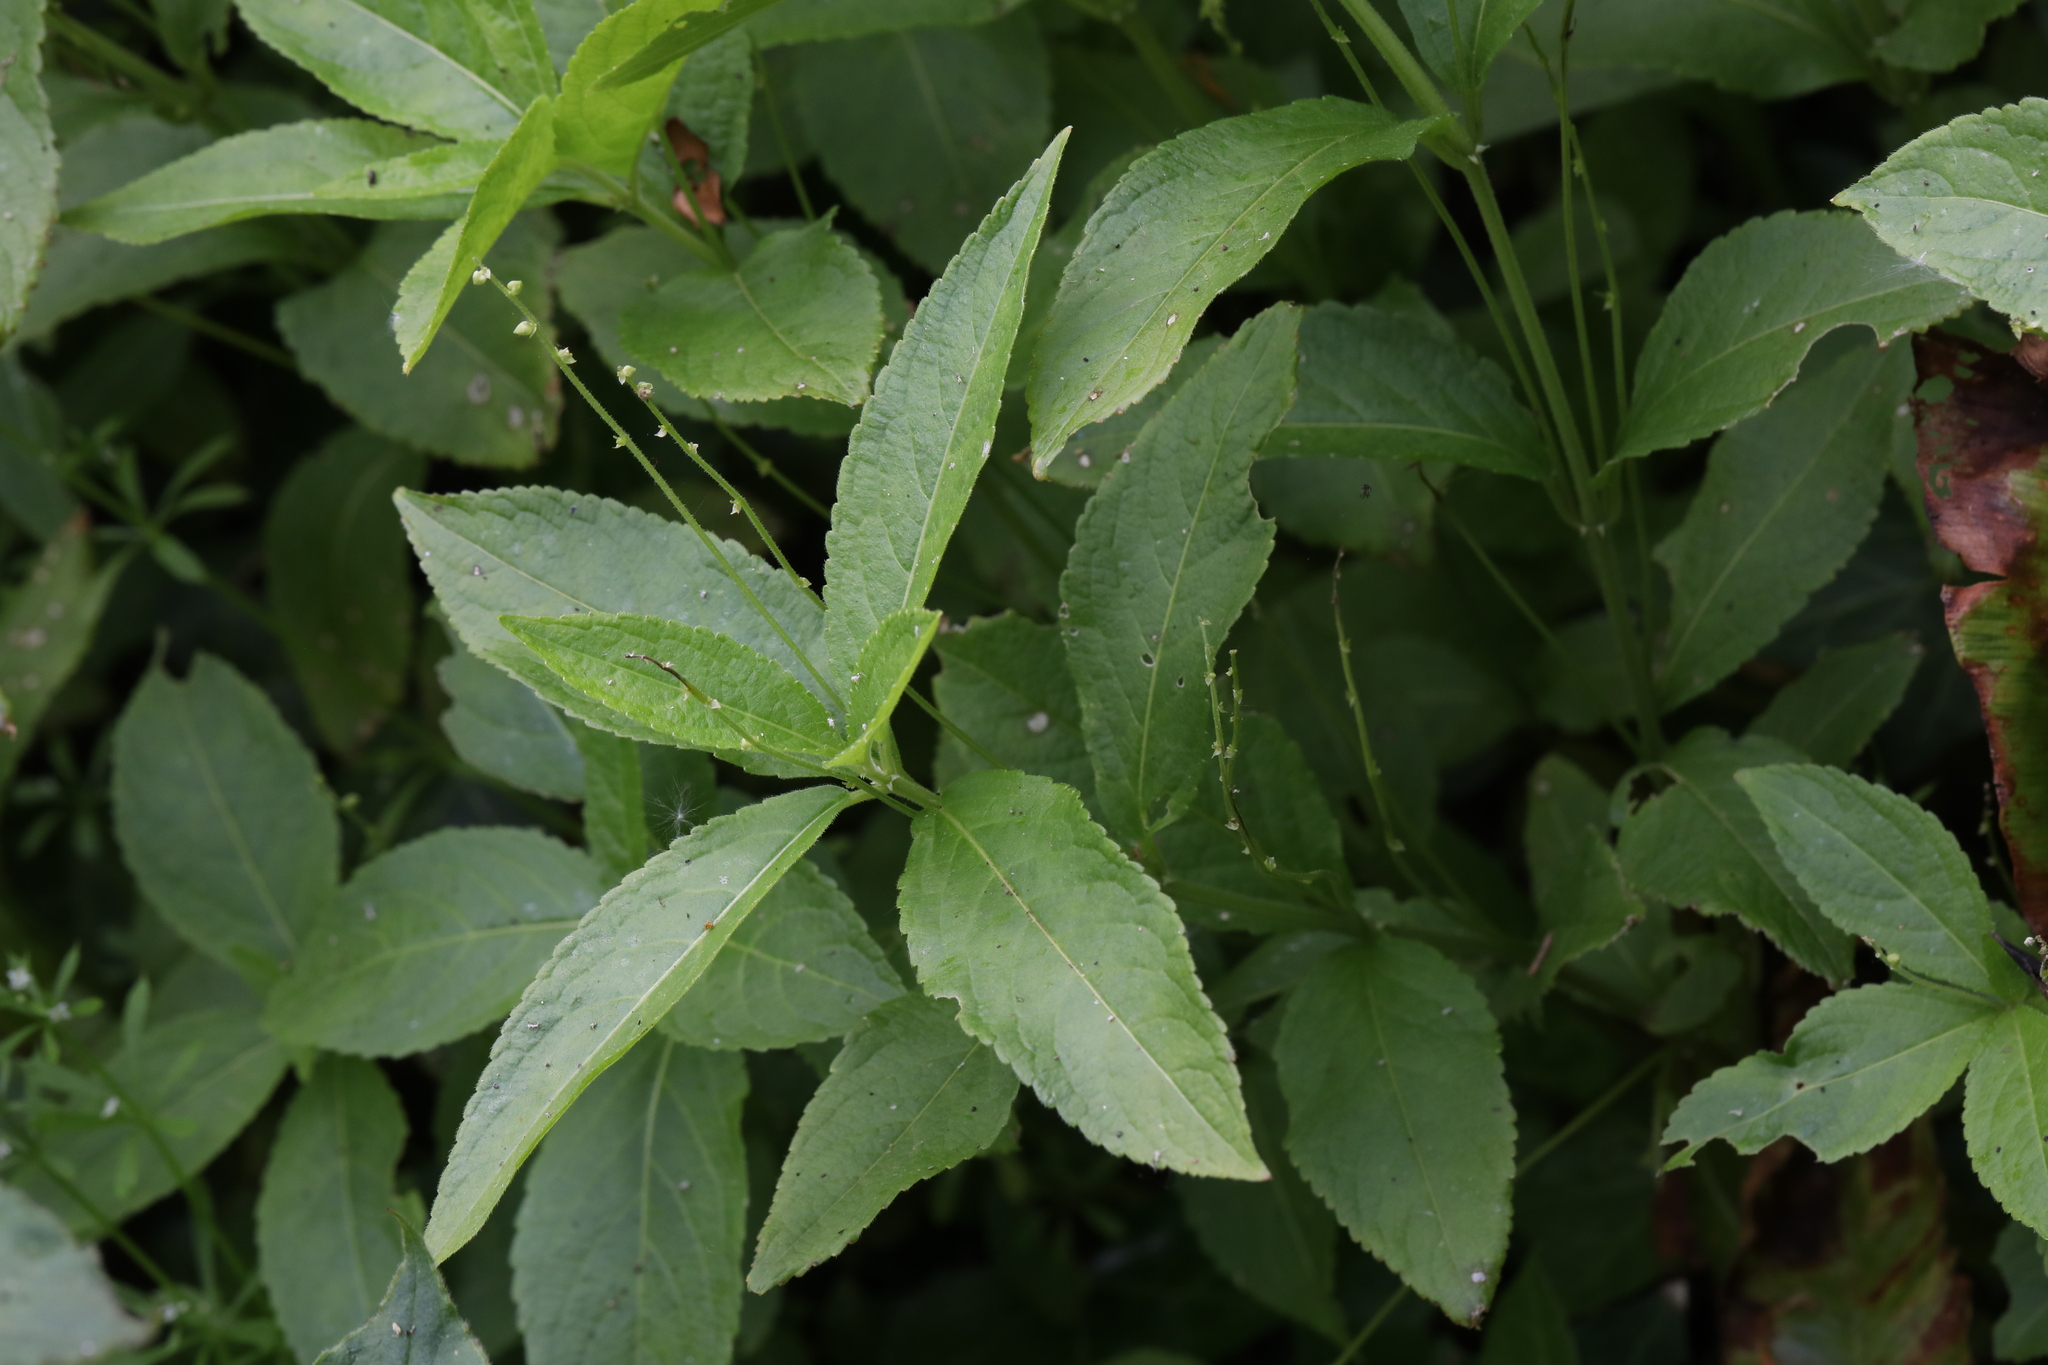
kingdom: Plantae
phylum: Tracheophyta
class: Magnoliopsida
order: Malpighiales
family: Euphorbiaceae
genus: Mercurialis
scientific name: Mercurialis perennis
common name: Dog mercury
